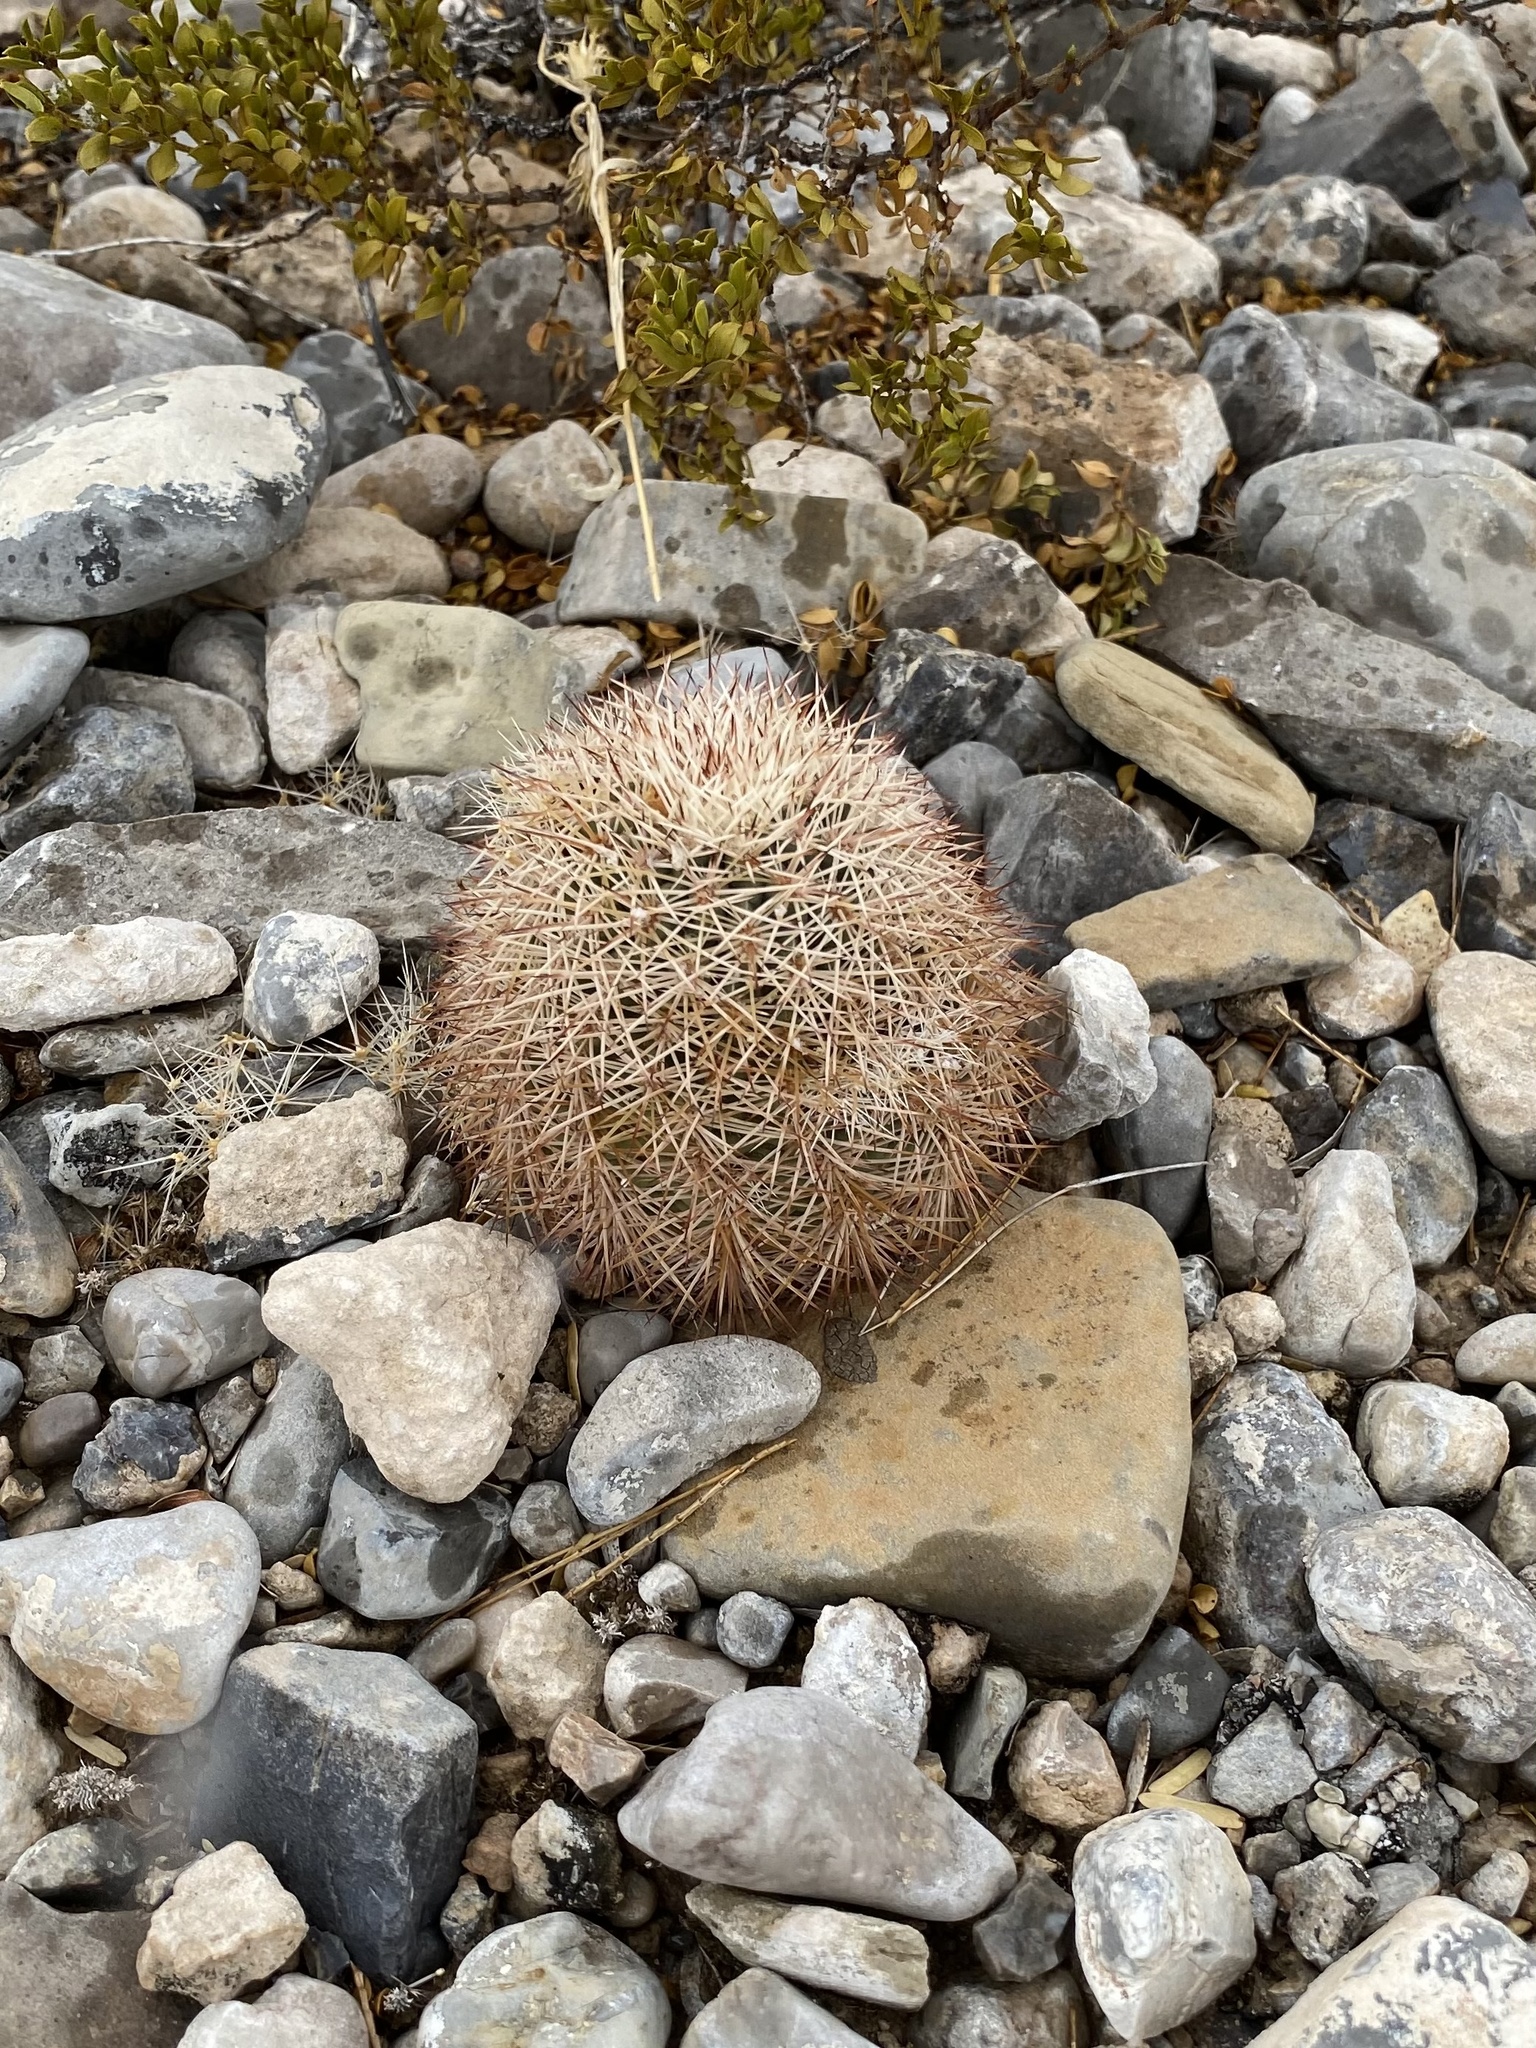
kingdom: Plantae
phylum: Tracheophyta
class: Magnoliopsida
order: Caryophyllales
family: Cactaceae
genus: Echinocereus
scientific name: Echinocereus dasyacanthus
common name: Spiny hedgehog cactus
